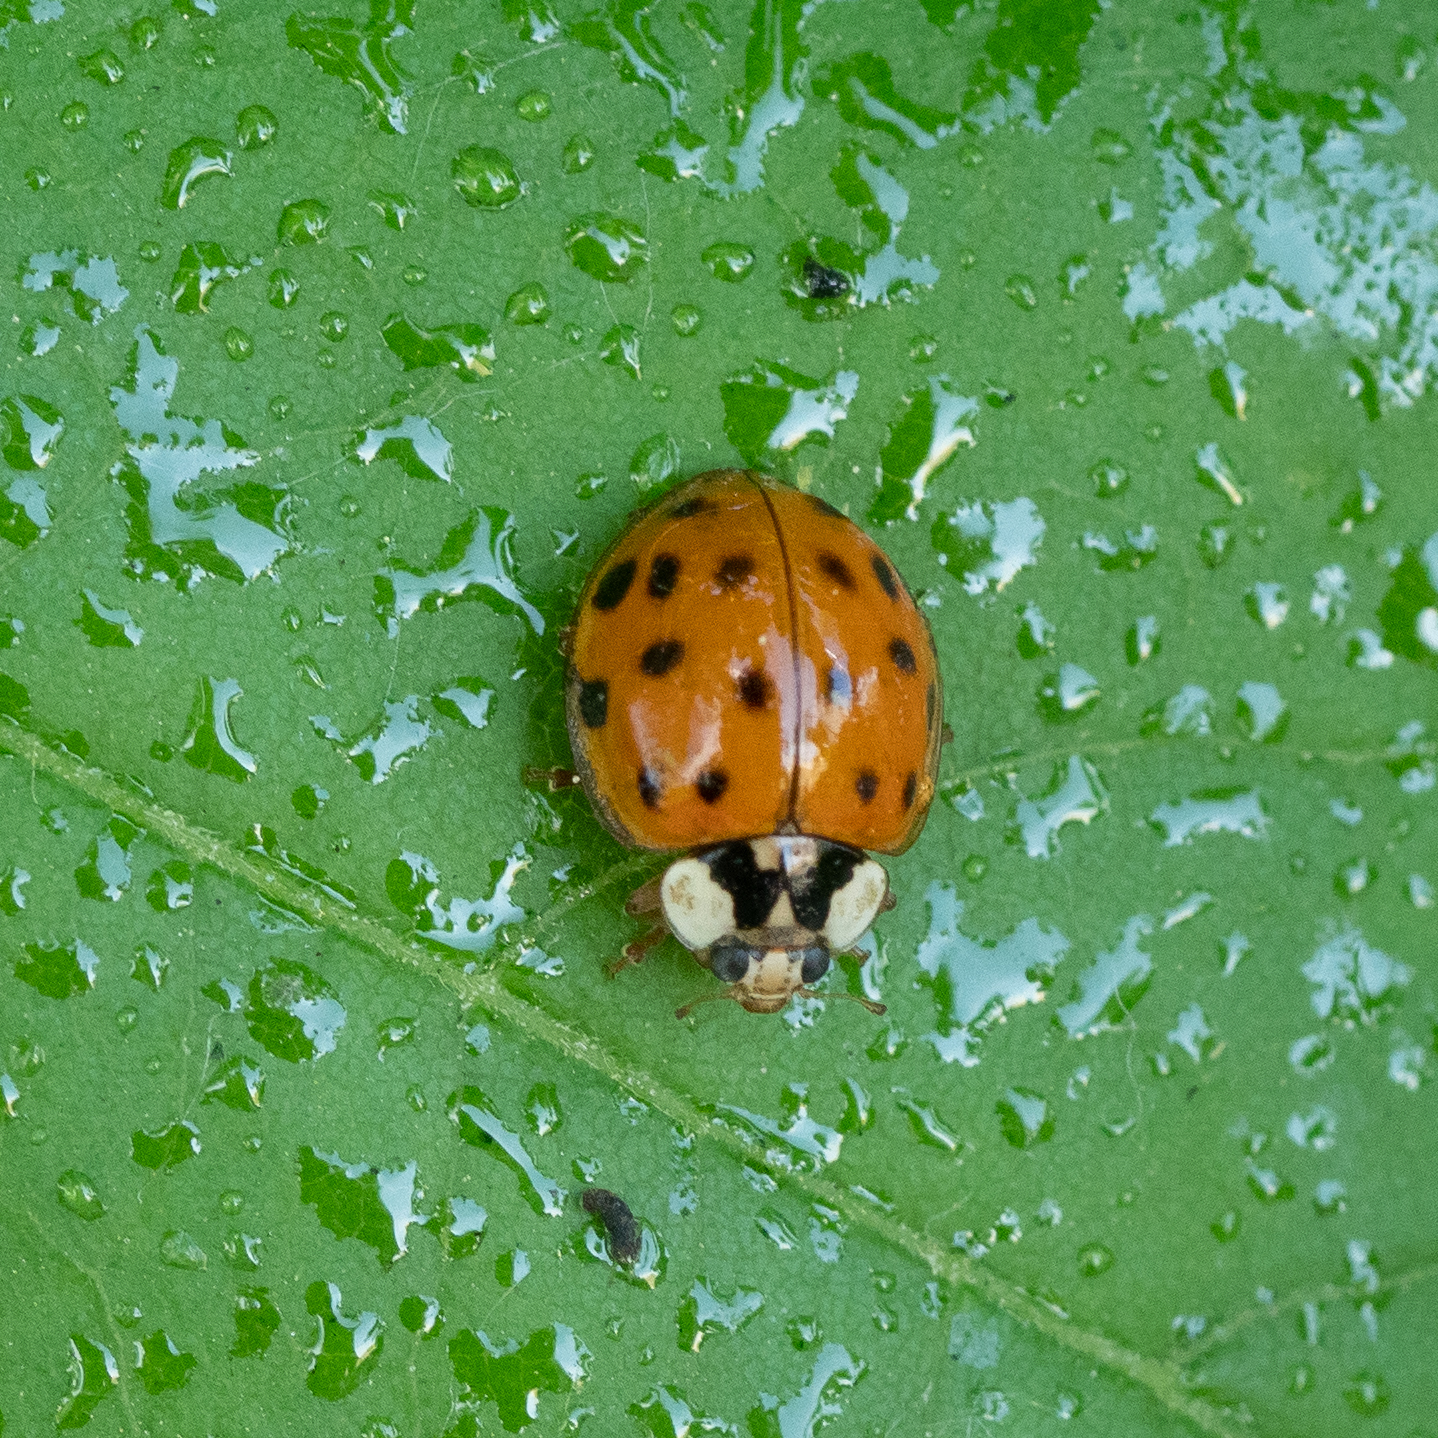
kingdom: Animalia
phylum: Arthropoda
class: Insecta
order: Coleoptera
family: Coccinellidae
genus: Harmonia
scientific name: Harmonia axyridis
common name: Harlequin ladybird
